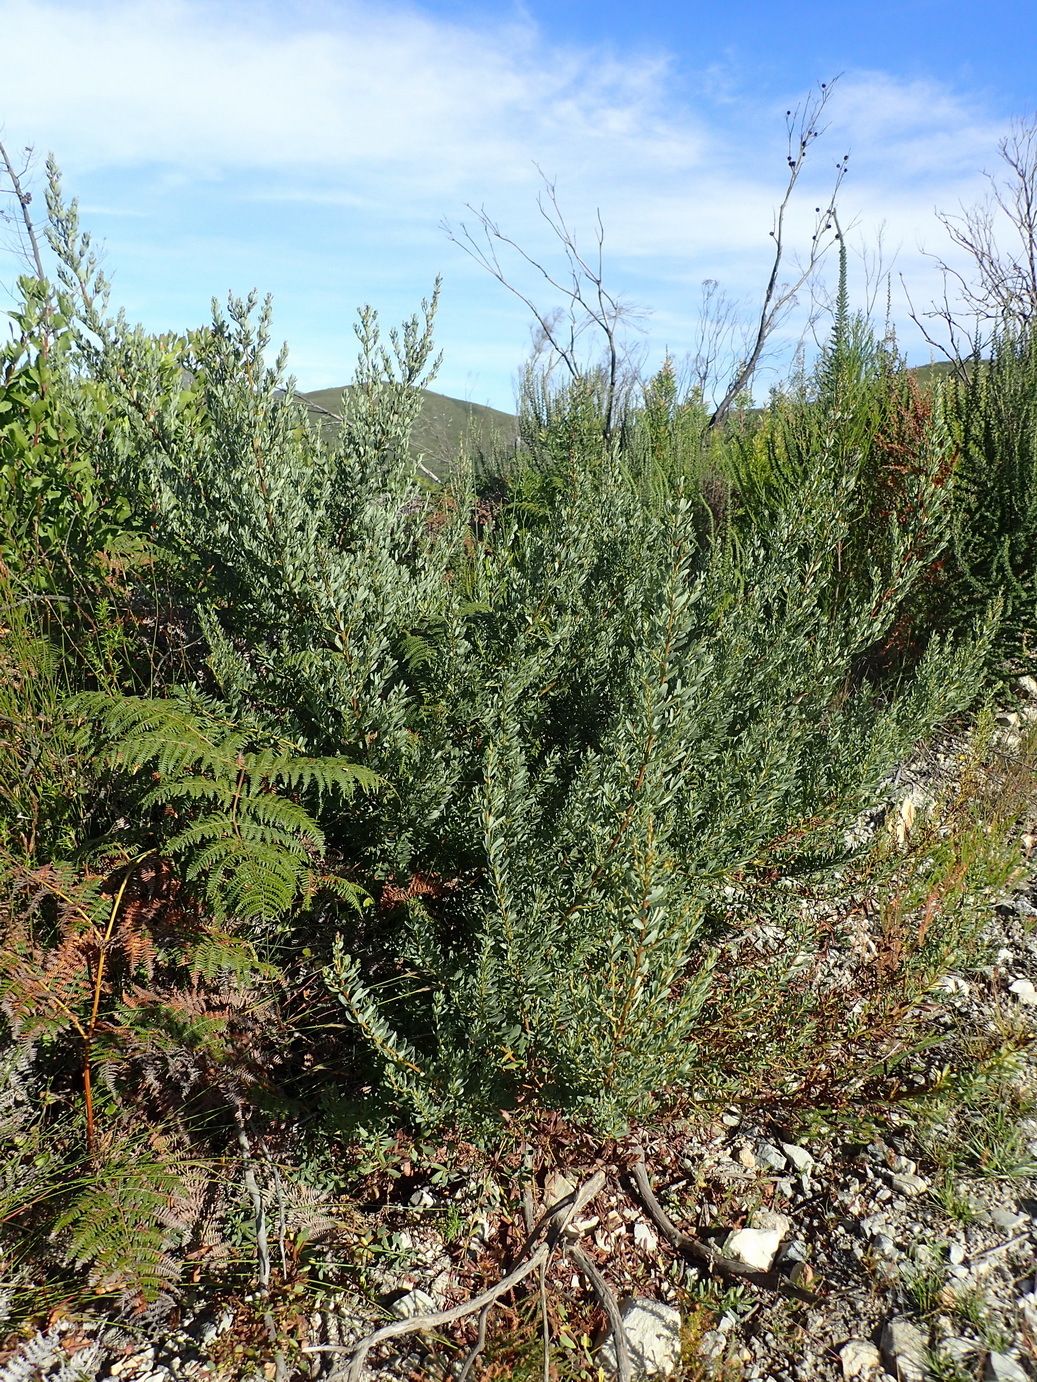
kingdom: Plantae
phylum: Tracheophyta
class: Magnoliopsida
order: Fabales
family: Fabaceae
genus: Cyclopia
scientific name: Cyclopia subternata
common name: Honeybush tea
